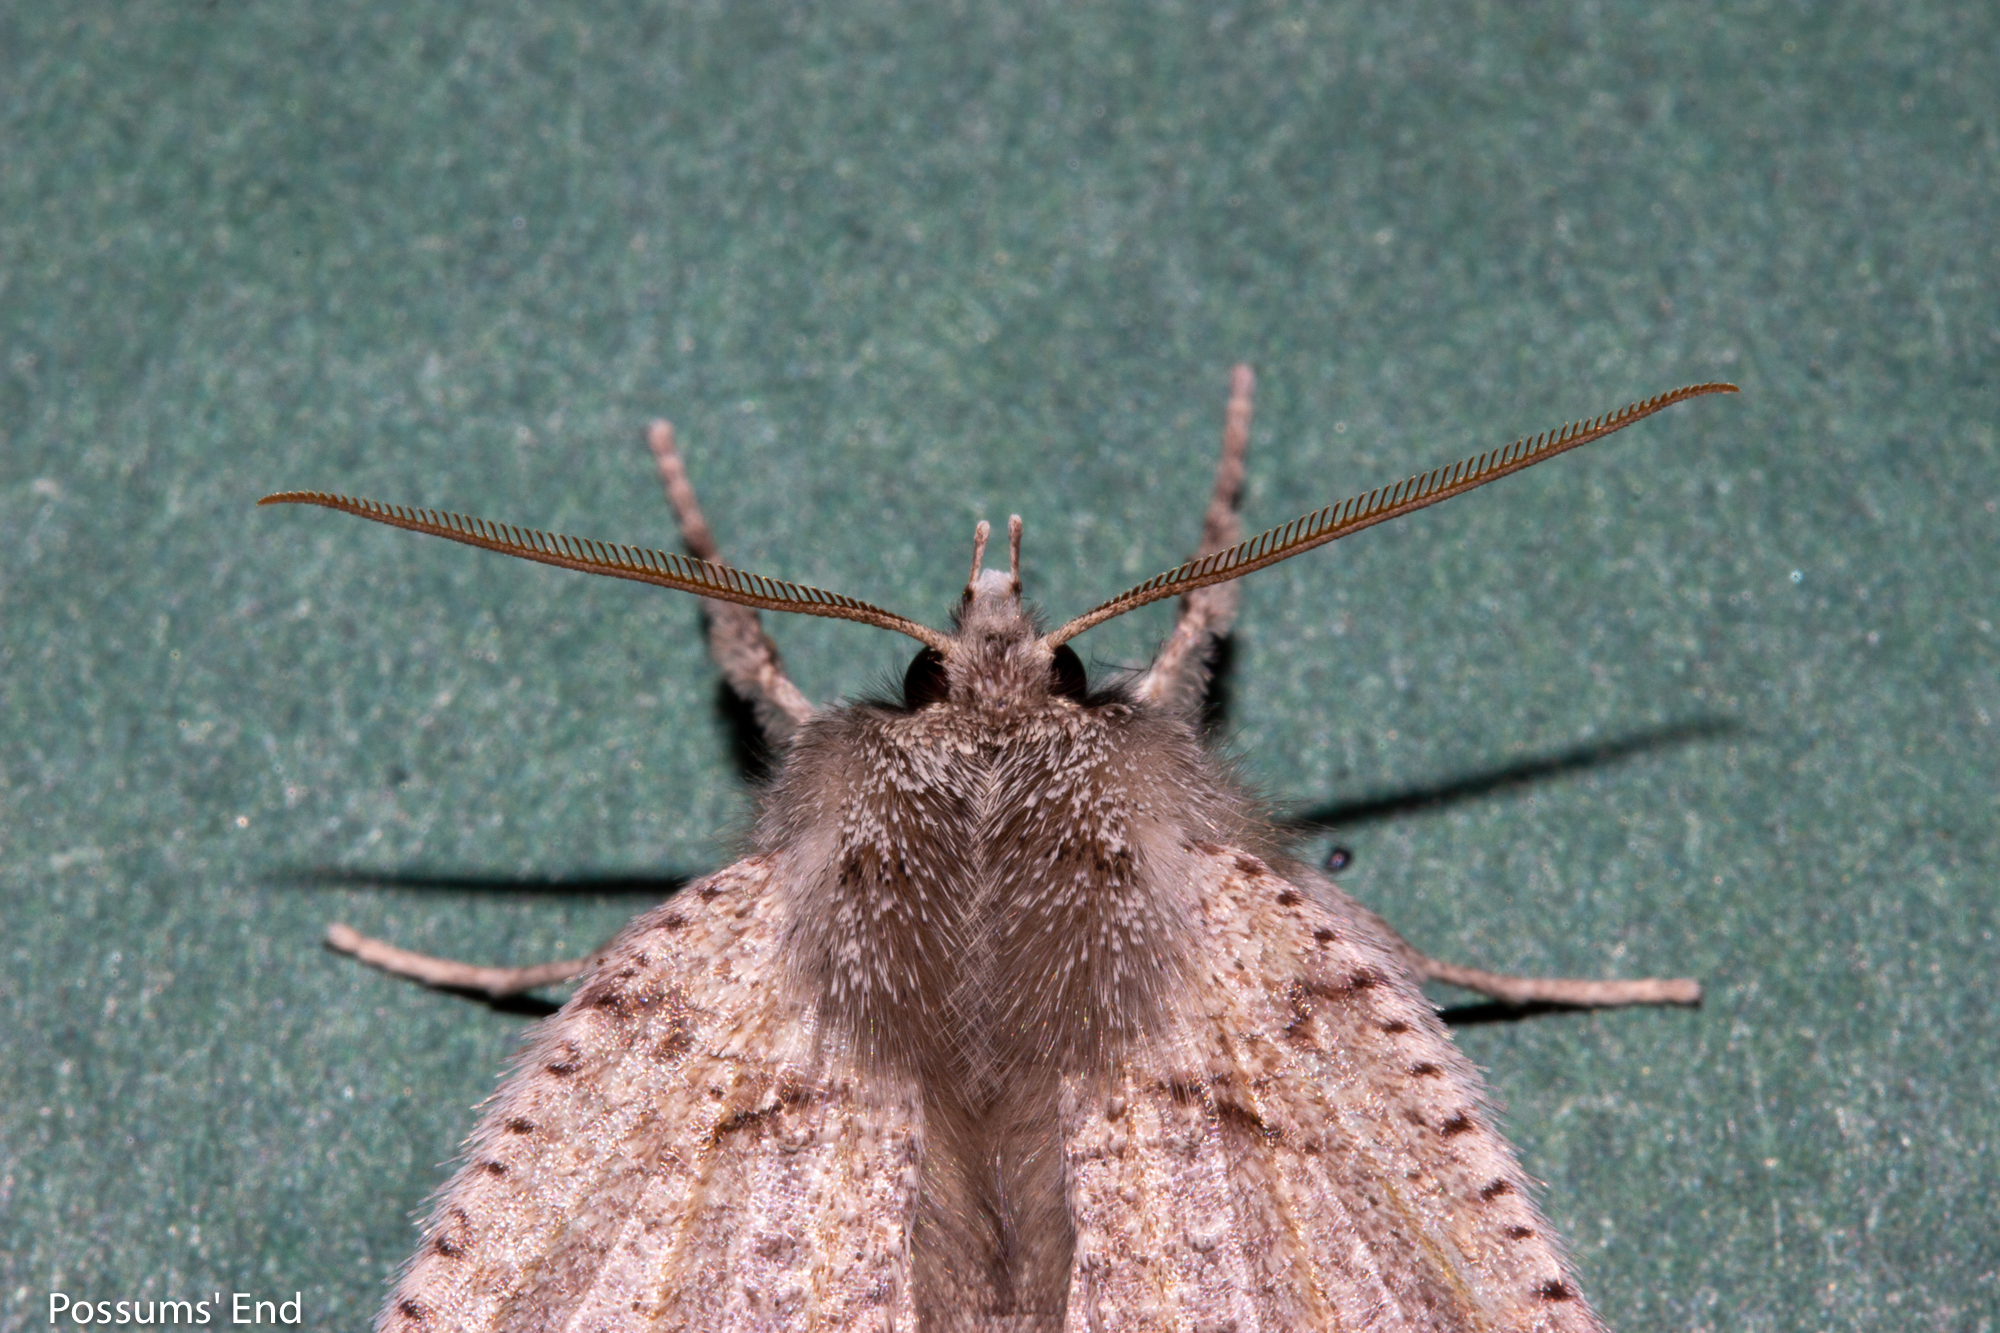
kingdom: Animalia
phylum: Arthropoda
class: Insecta
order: Lepidoptera
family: Geometridae
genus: Declana
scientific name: Declana floccosa
